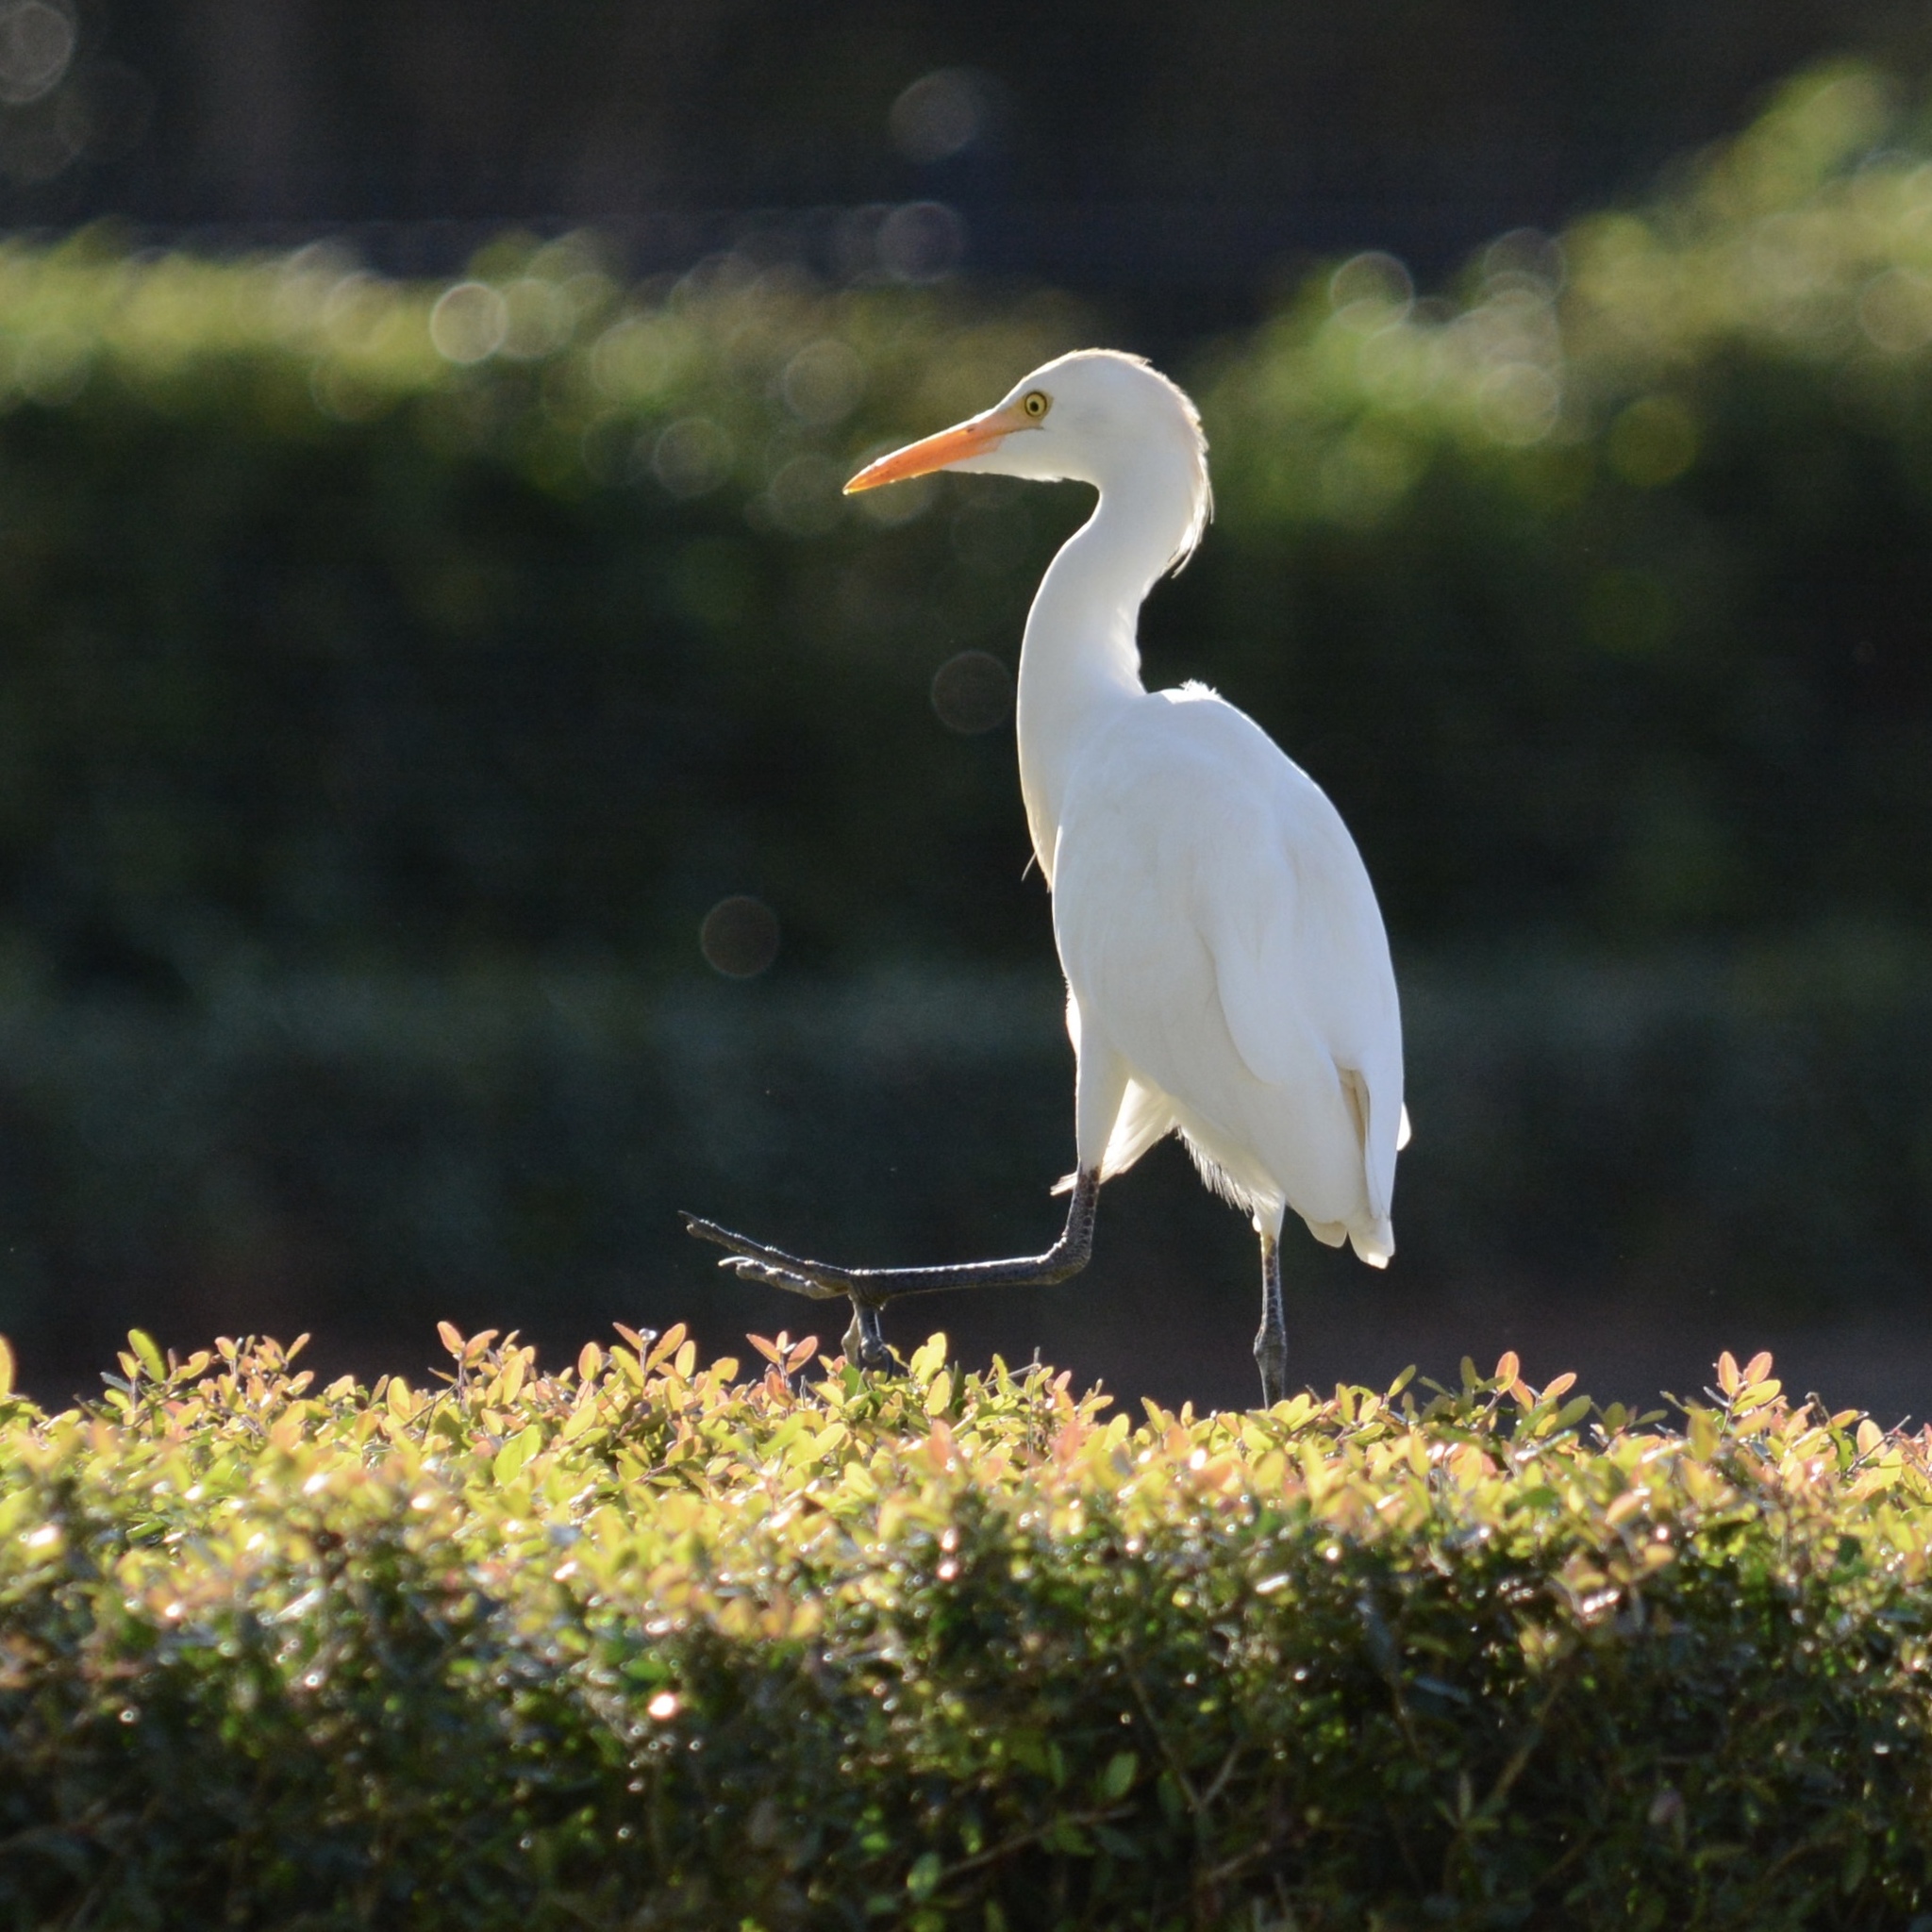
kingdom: Animalia
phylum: Chordata
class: Aves
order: Pelecaniformes
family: Ardeidae
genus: Bubulcus
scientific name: Bubulcus ibis
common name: Cattle egret
